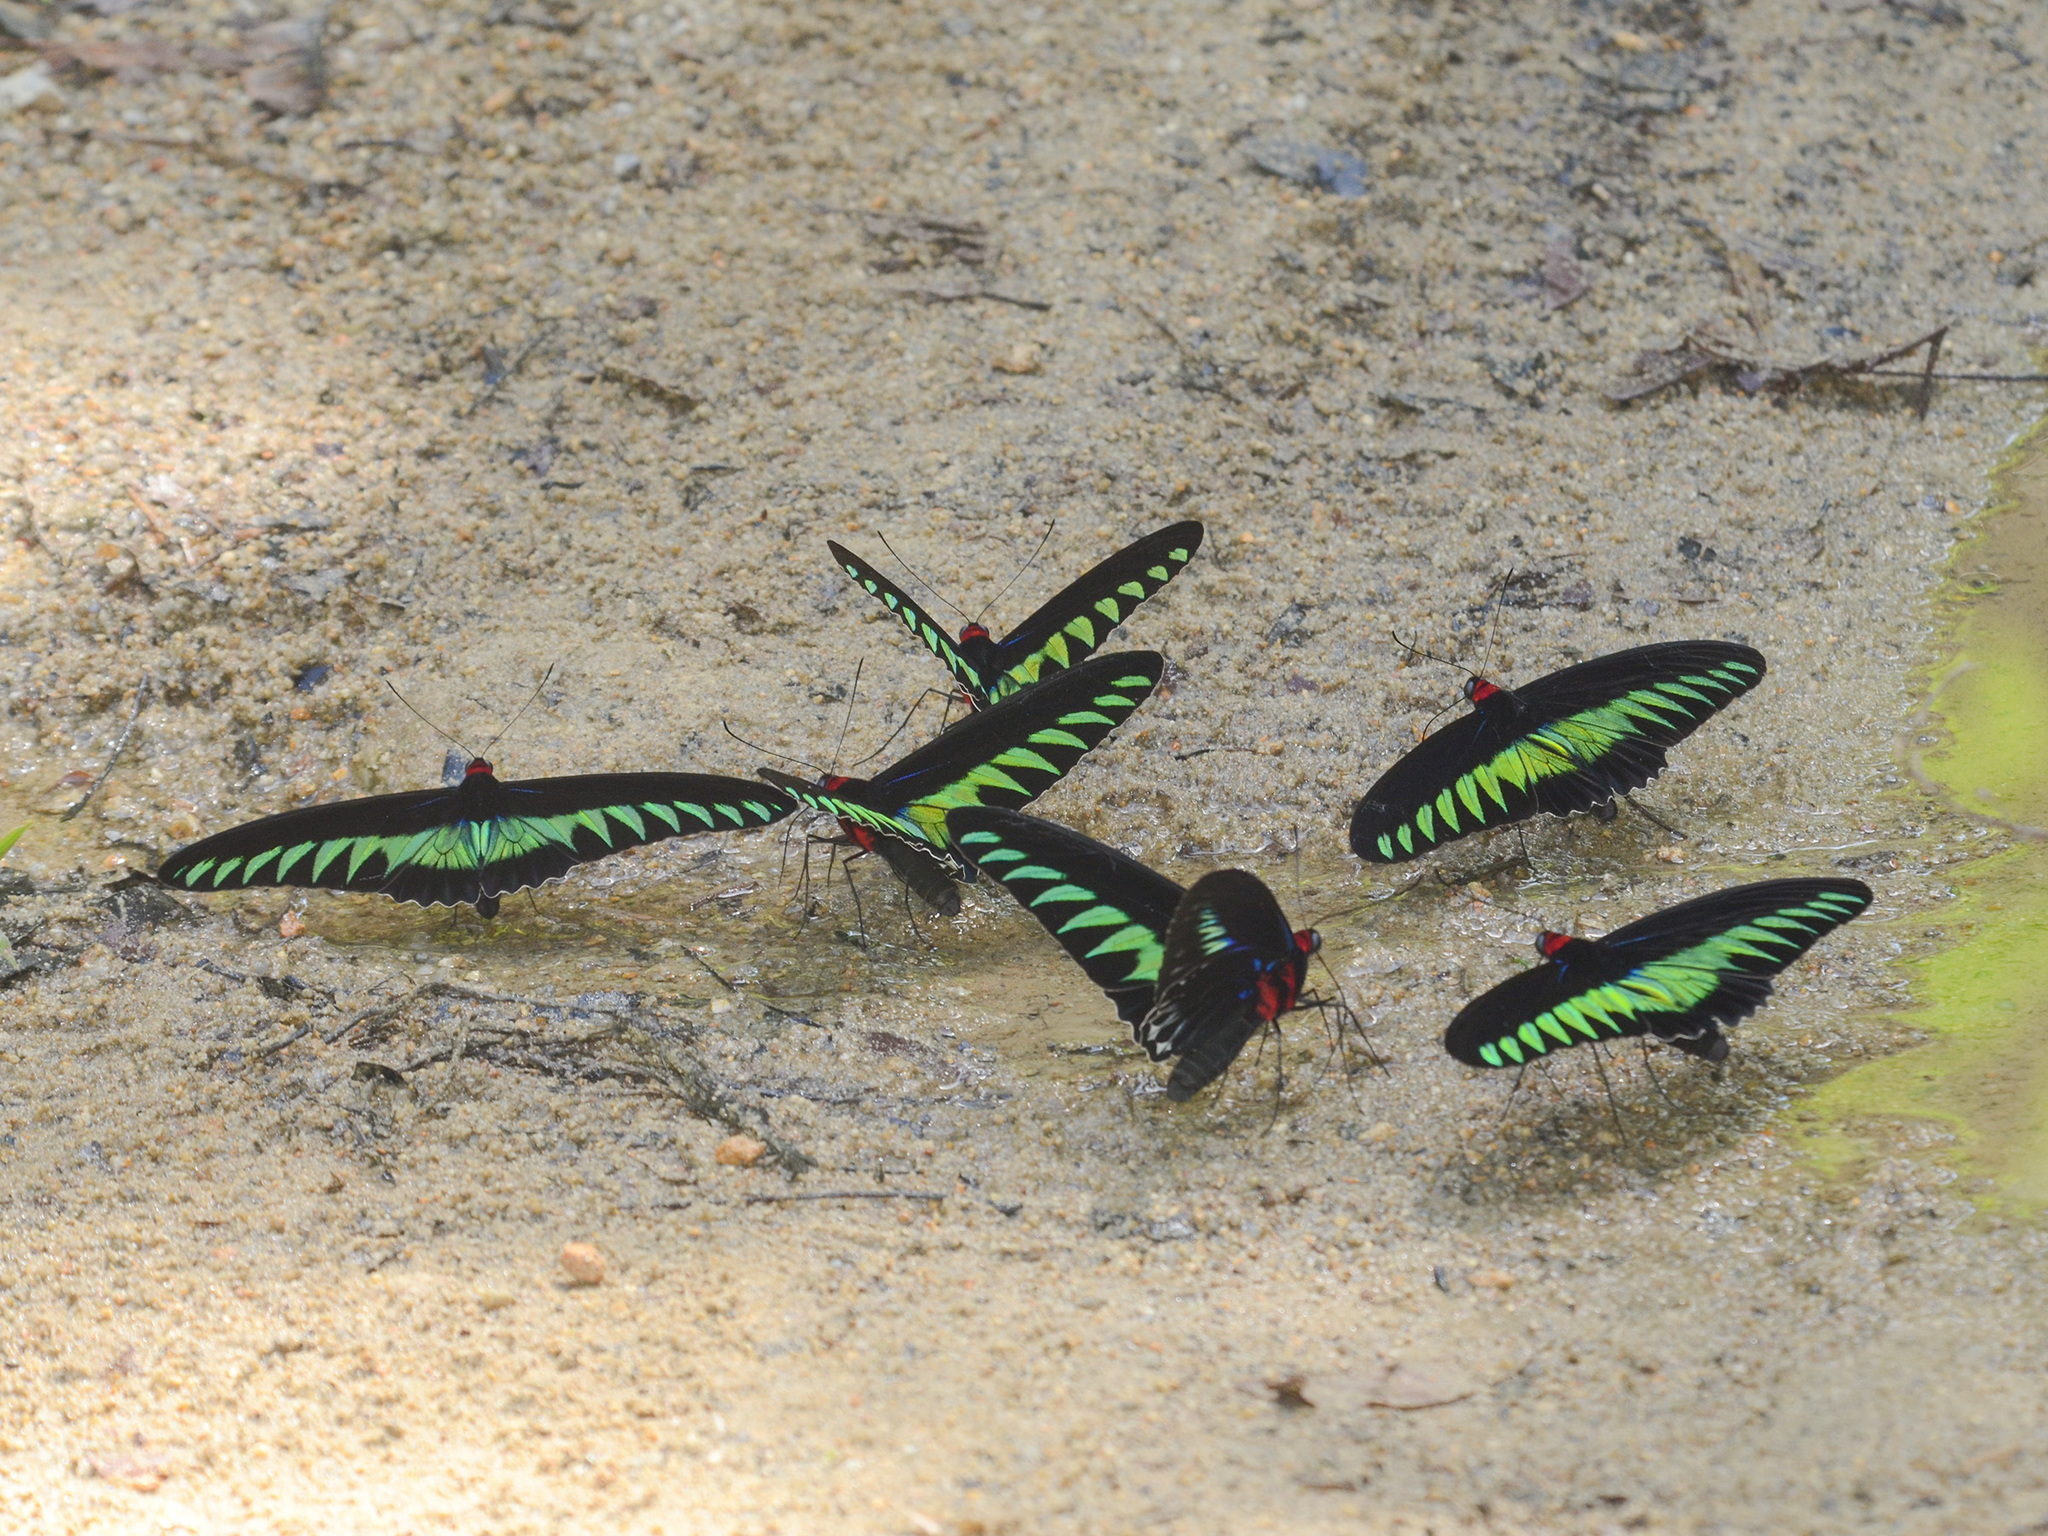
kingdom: Animalia
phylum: Arthropoda
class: Insecta
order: Lepidoptera
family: Papilionidae
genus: Trogonoptera
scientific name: Trogonoptera brookiana
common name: Raja brooke's birdwing
